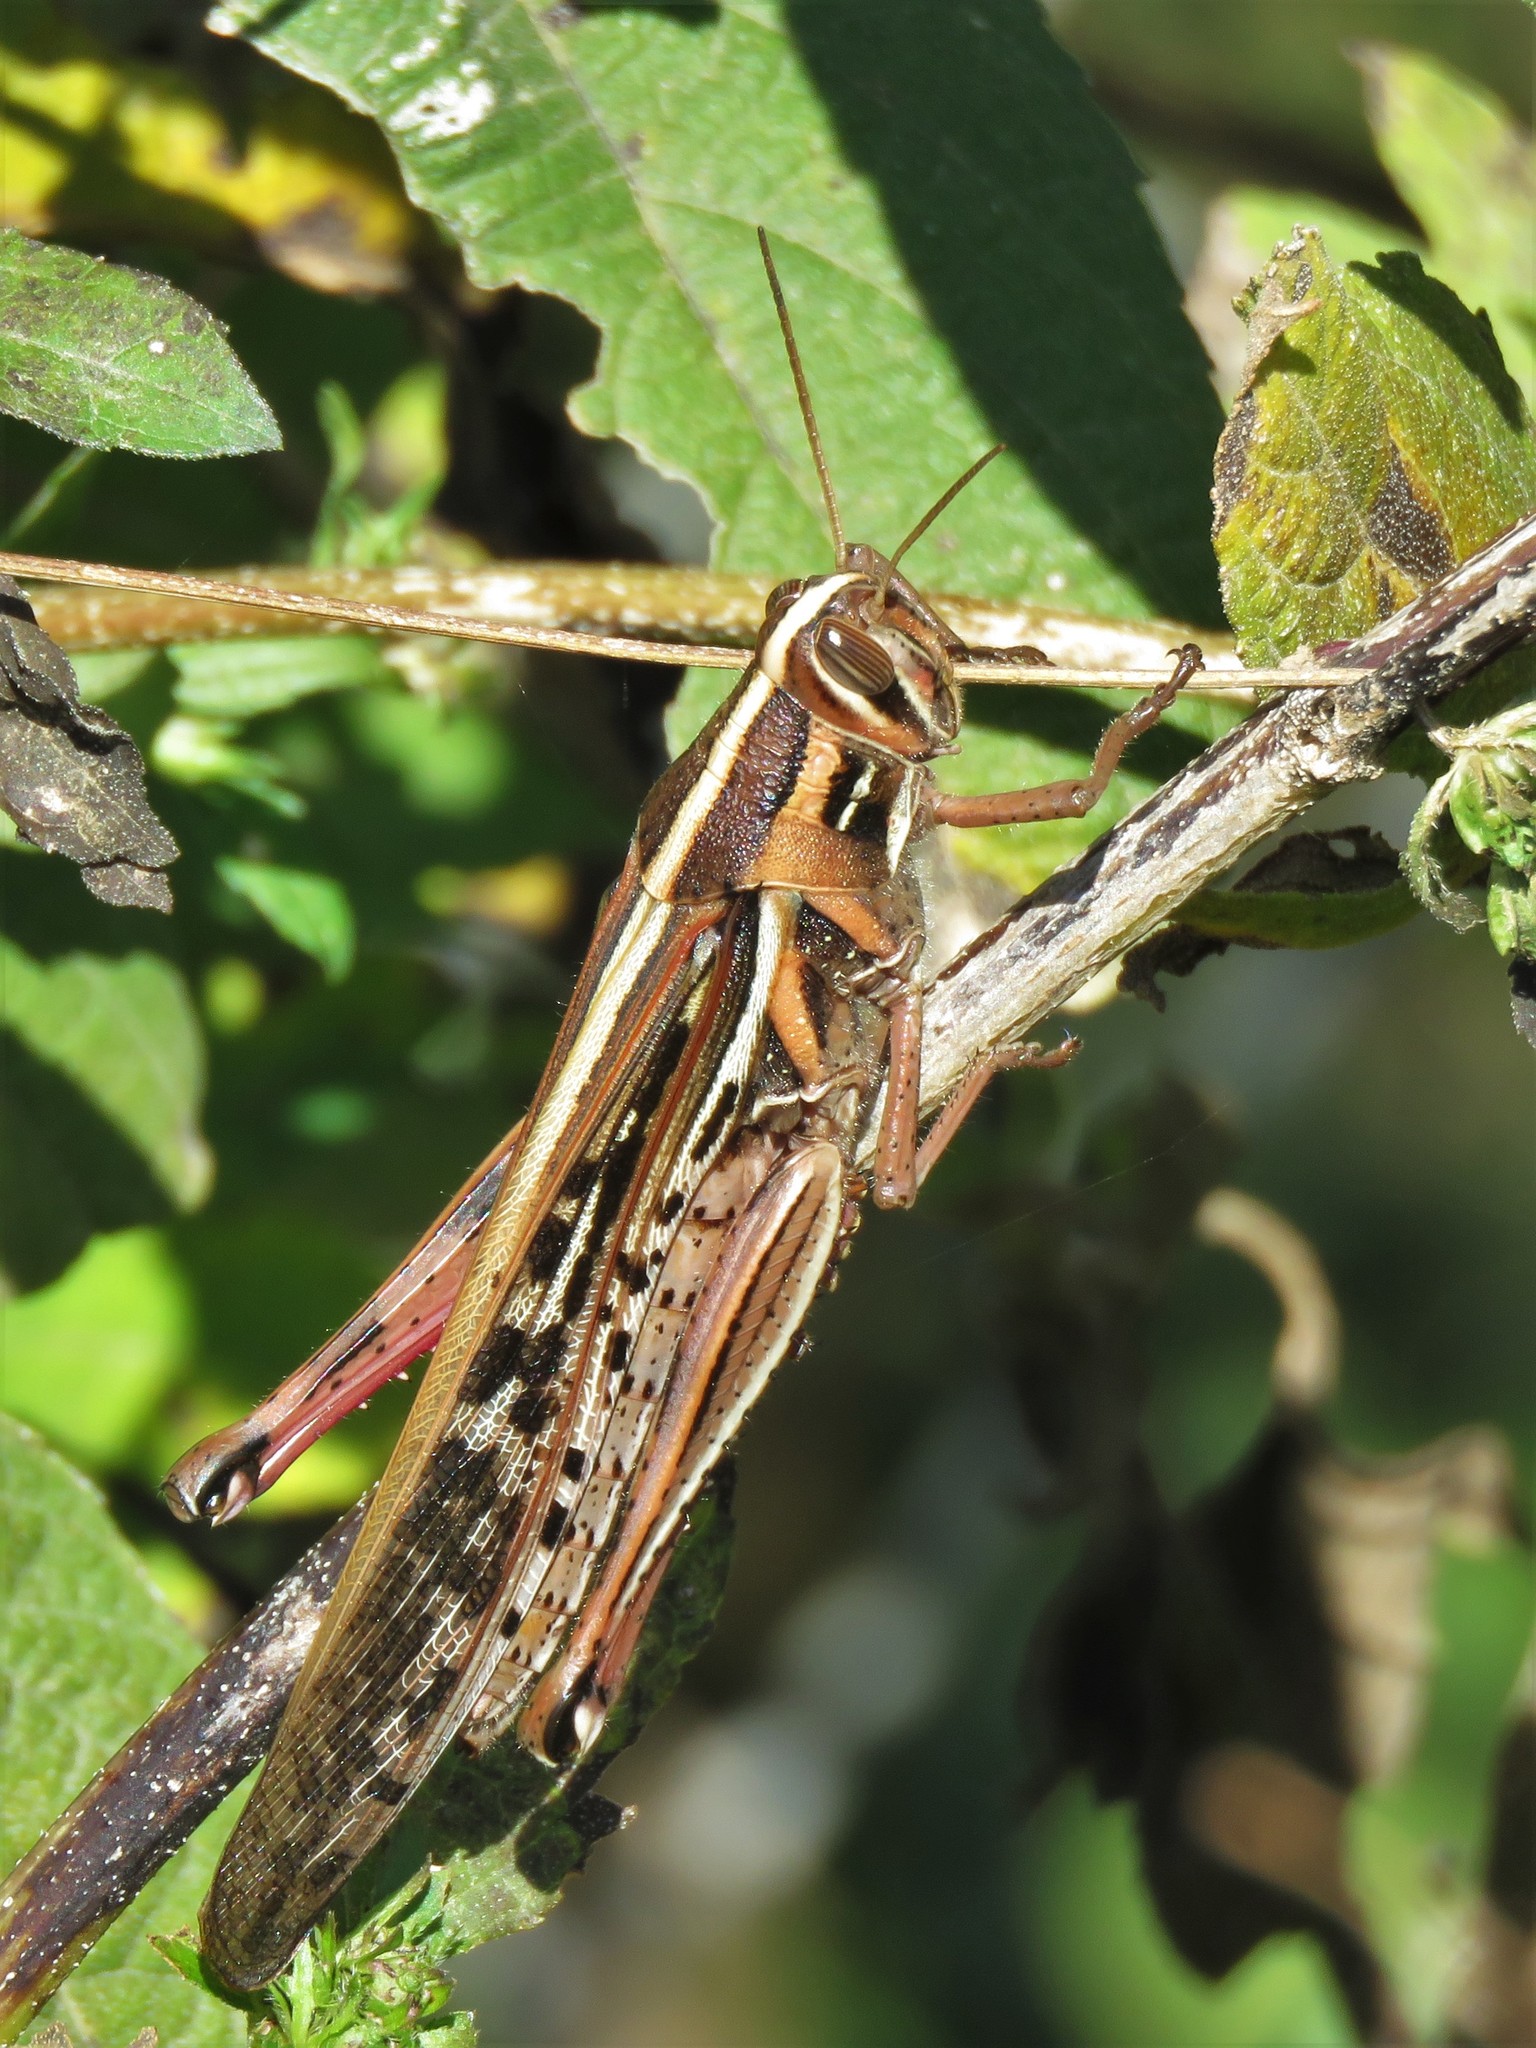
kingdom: Animalia
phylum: Arthropoda
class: Insecta
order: Orthoptera
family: Acrididae
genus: Schistocerca
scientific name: Schistocerca americana
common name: American bird locust
